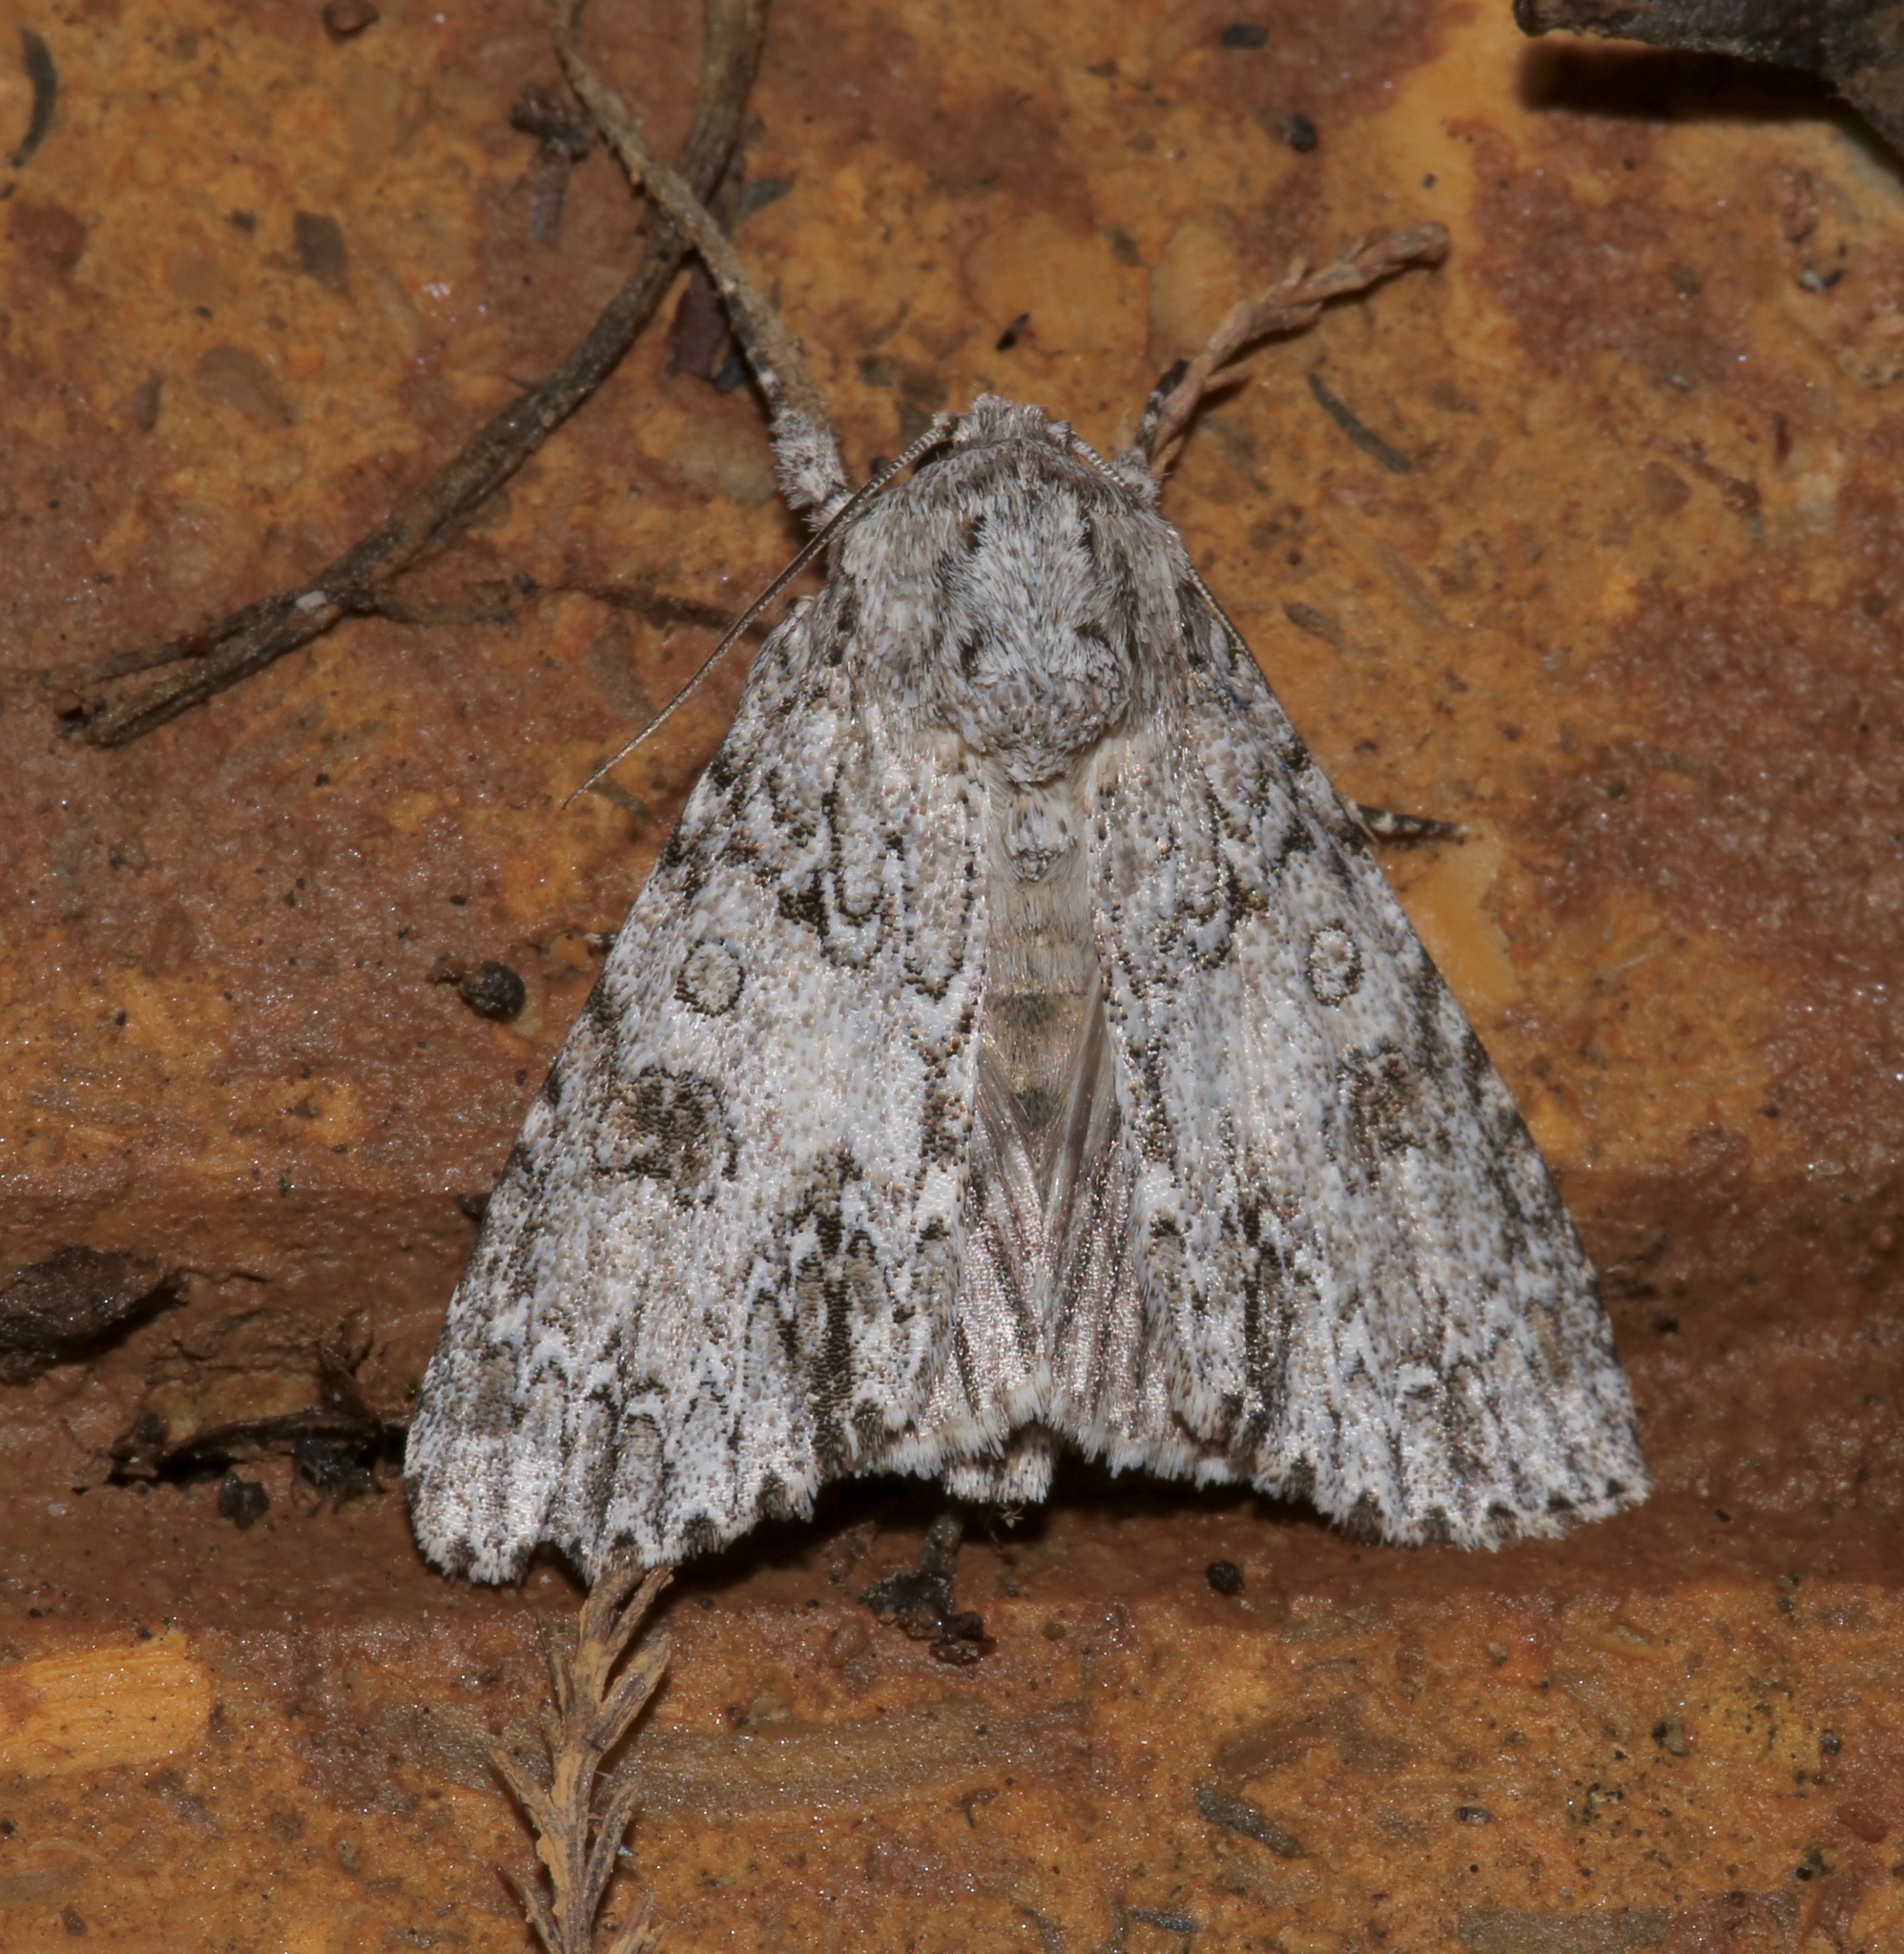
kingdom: Animalia
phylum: Arthropoda
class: Insecta
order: Lepidoptera
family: Noctuidae
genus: Acronicta
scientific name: Acronicta rubricoma
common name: Hackberry dagger
